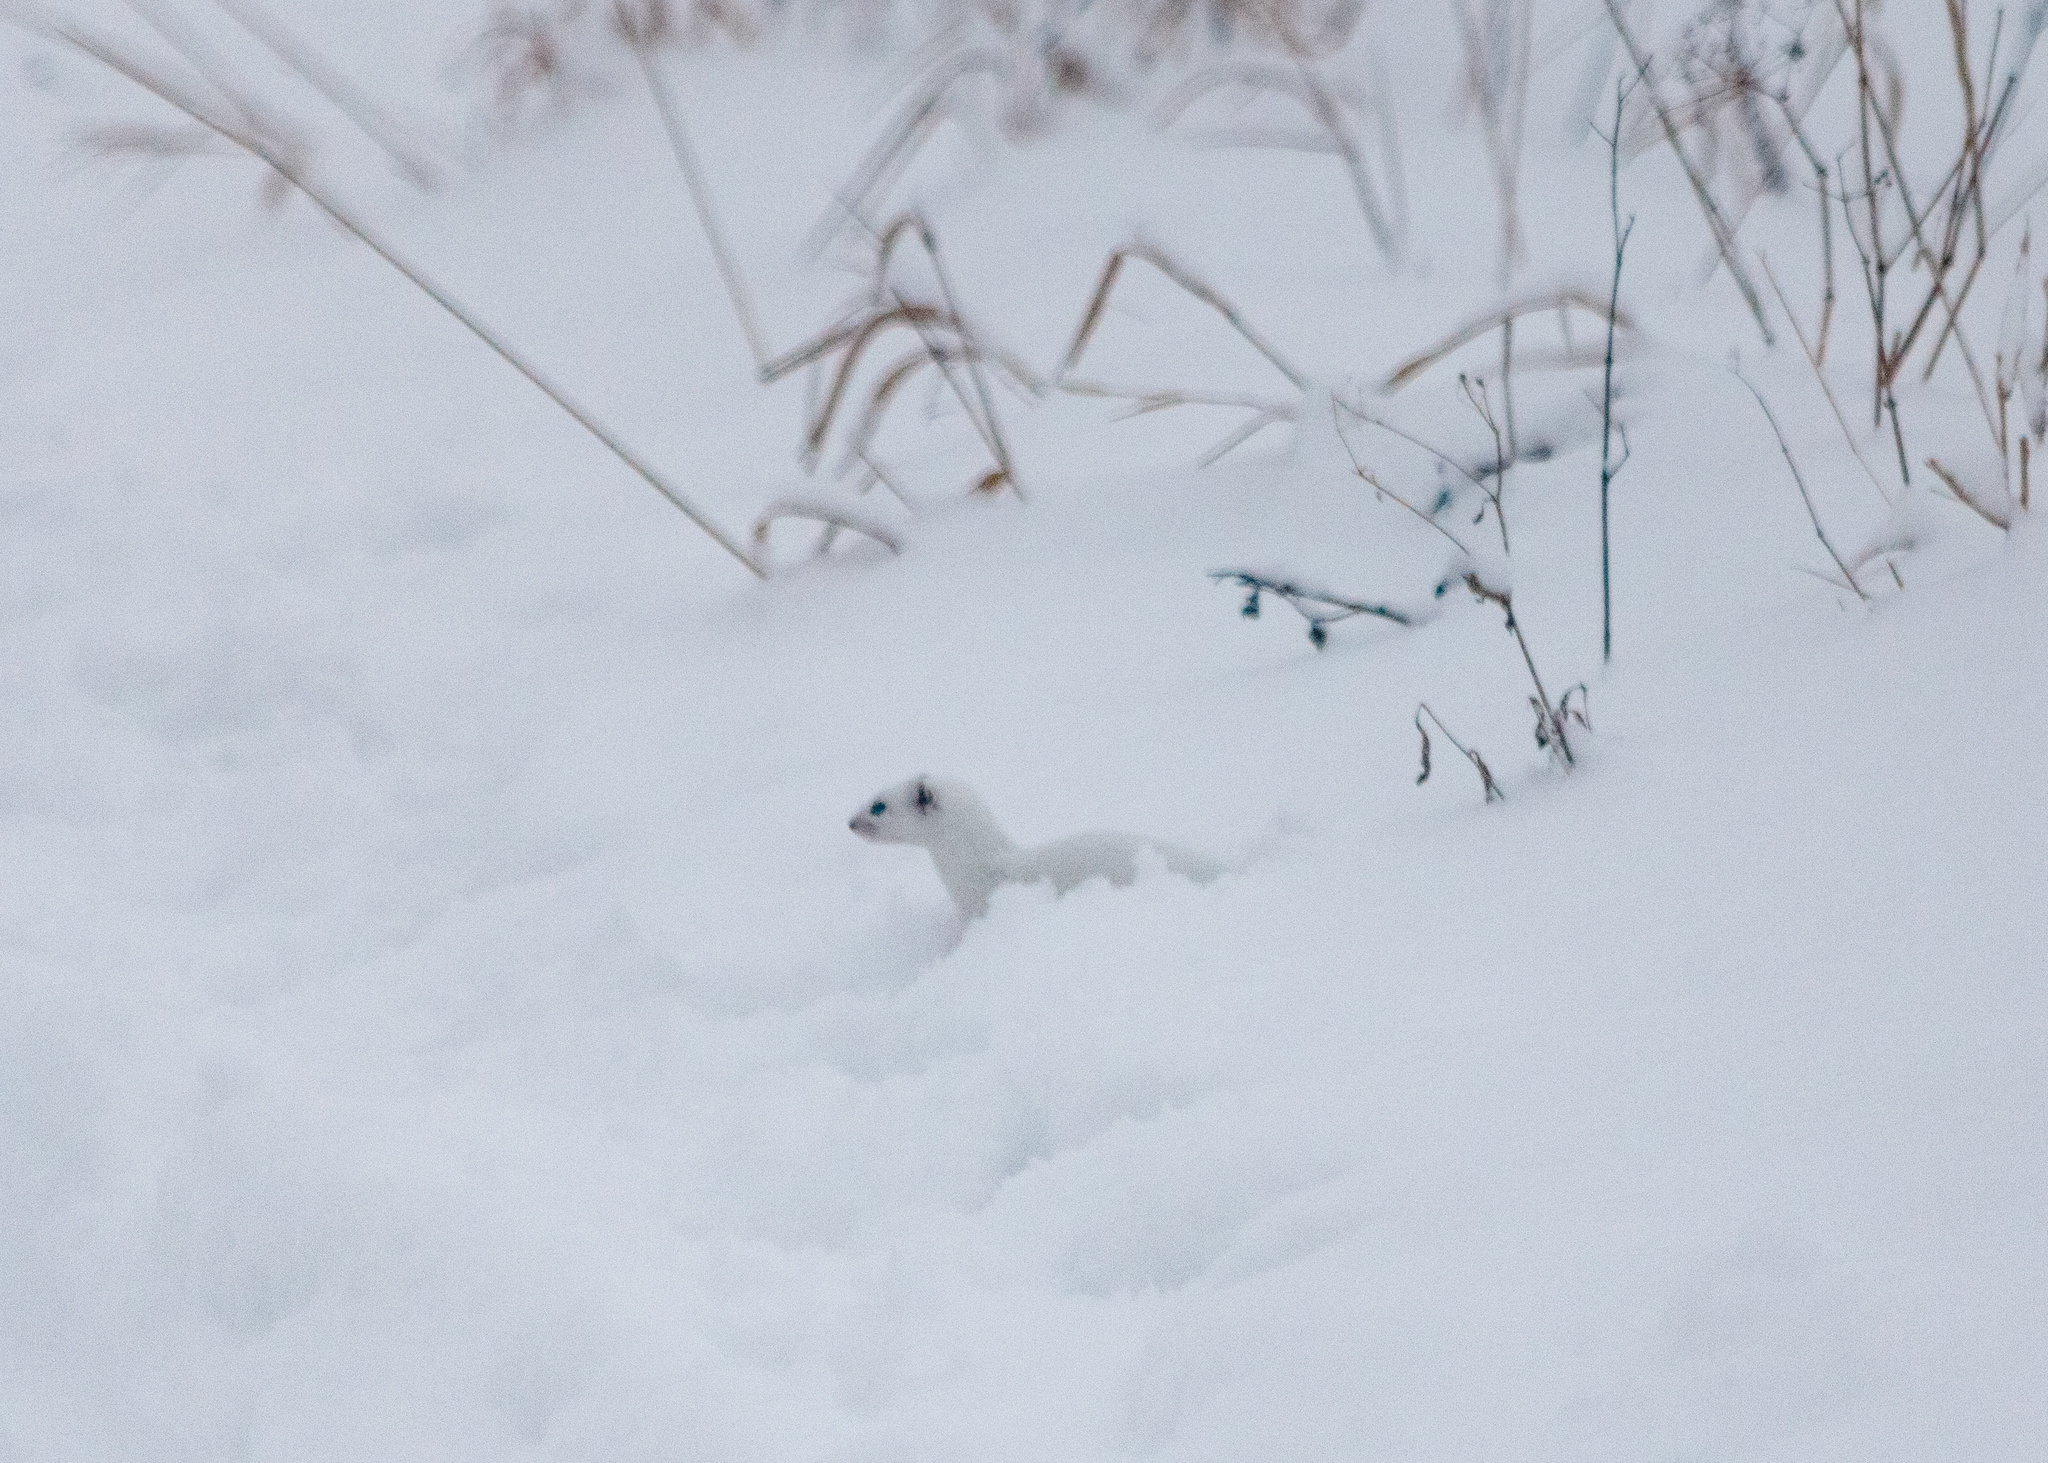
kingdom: Animalia
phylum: Chordata
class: Mammalia
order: Carnivora
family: Mustelidae
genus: Mustela
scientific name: Mustela nivalis
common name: Least weasel
